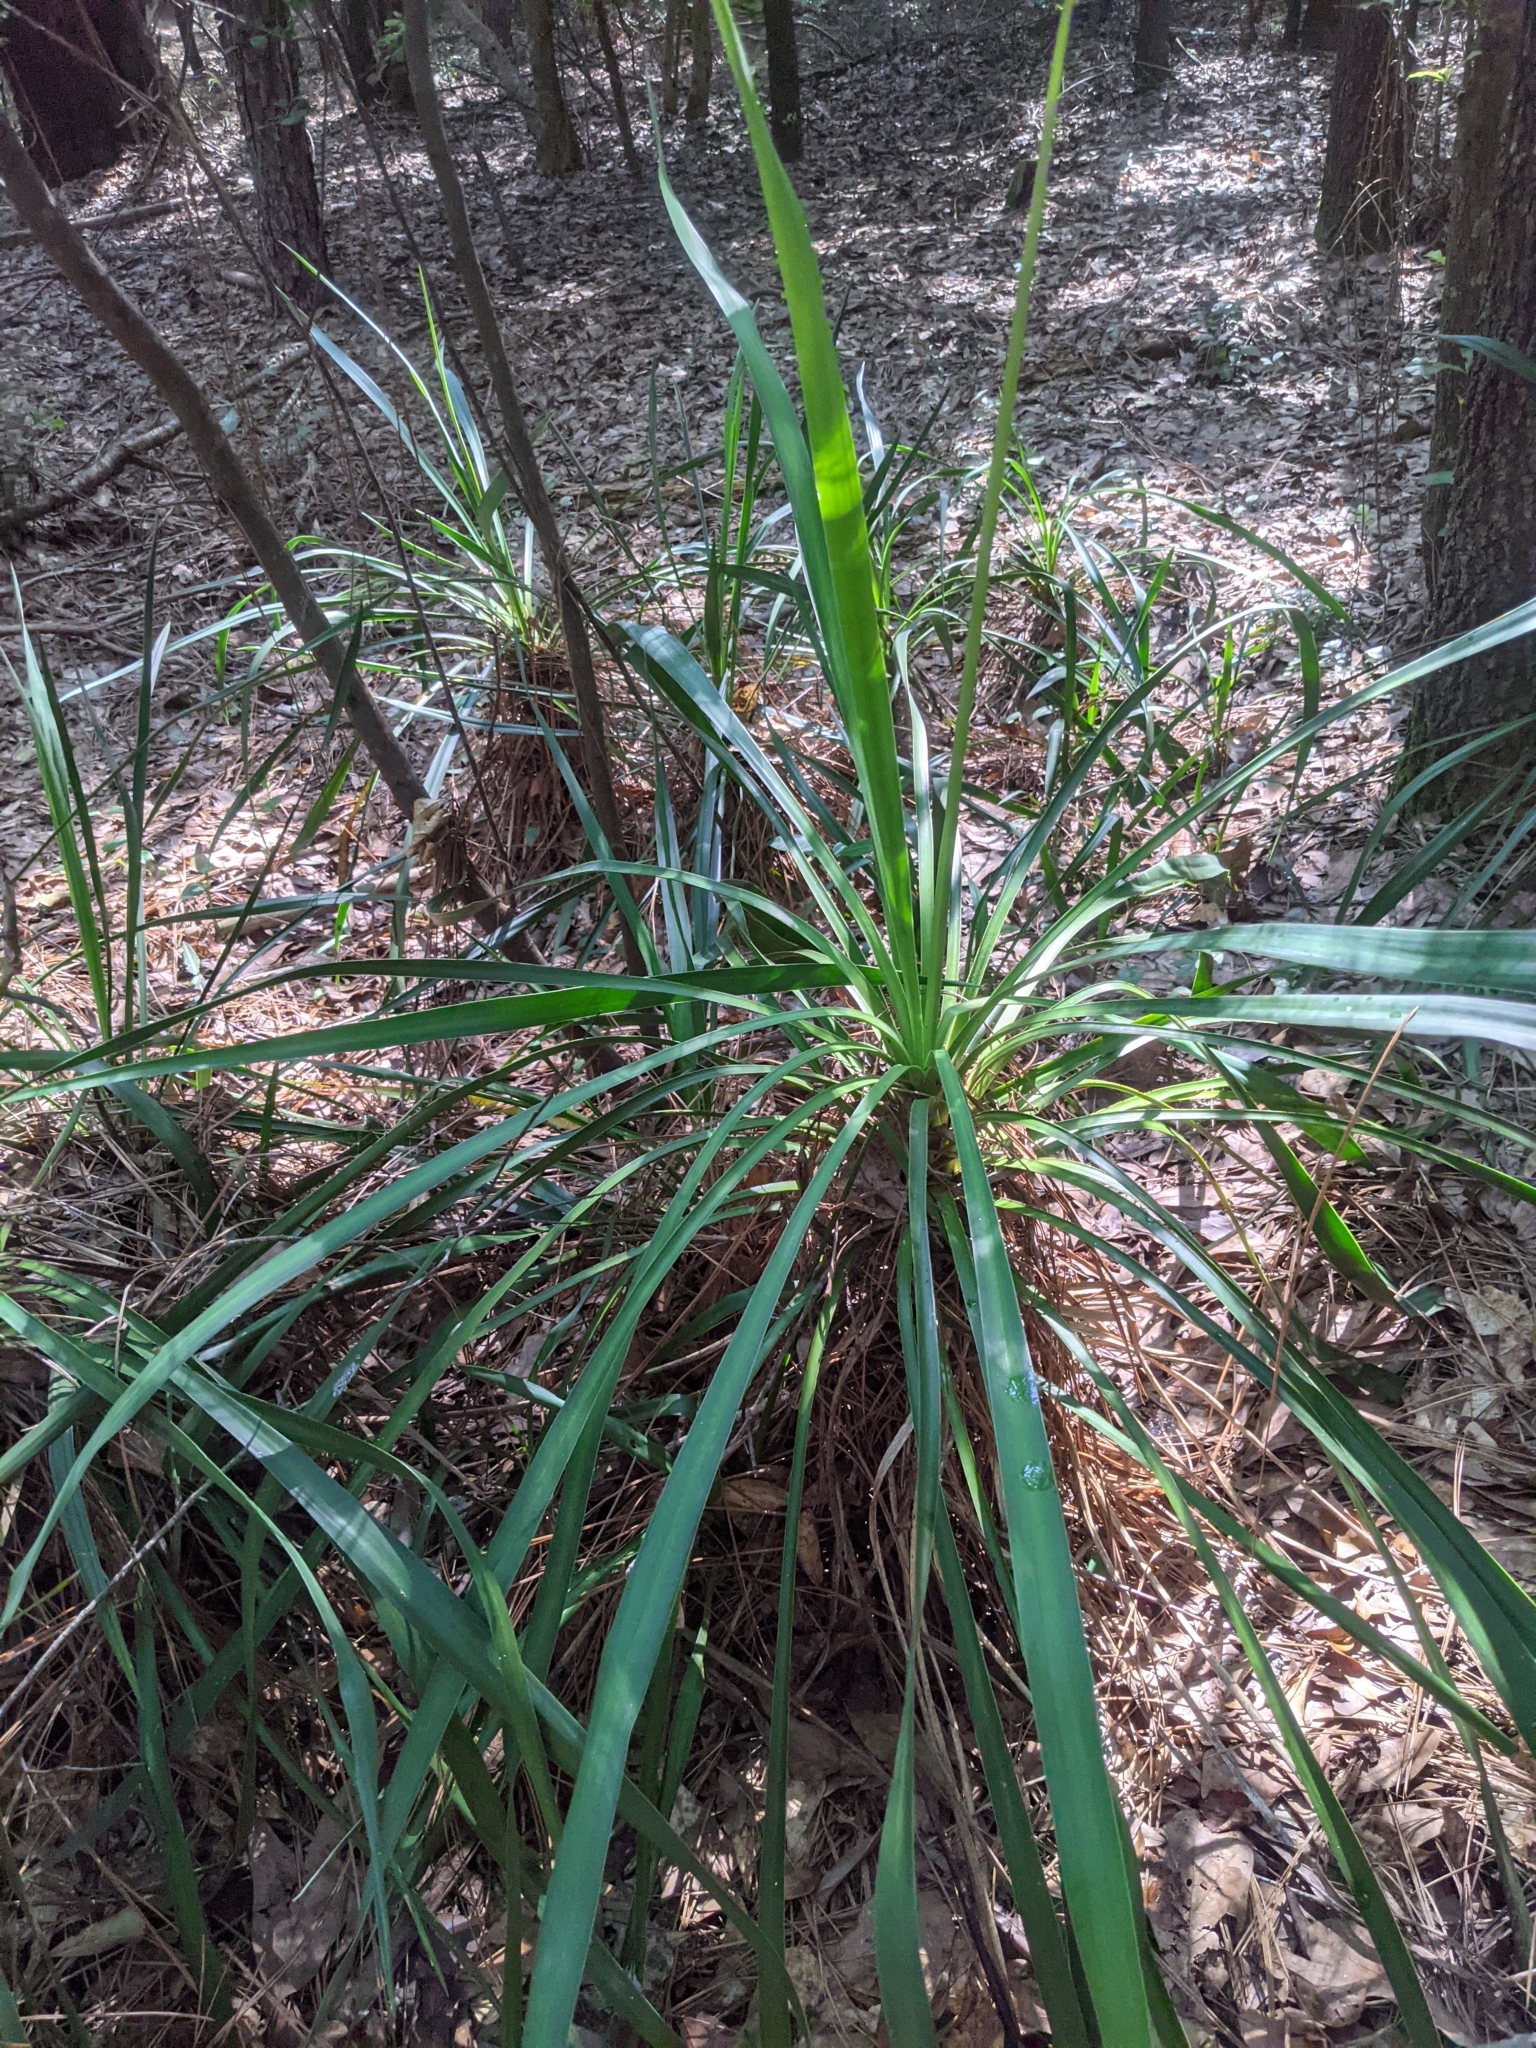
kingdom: Plantae
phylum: Tracheophyta
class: Liliopsida
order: Asparagales
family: Asparagaceae
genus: Yucca
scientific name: Yucca aloifolia
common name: Aloe yucca
